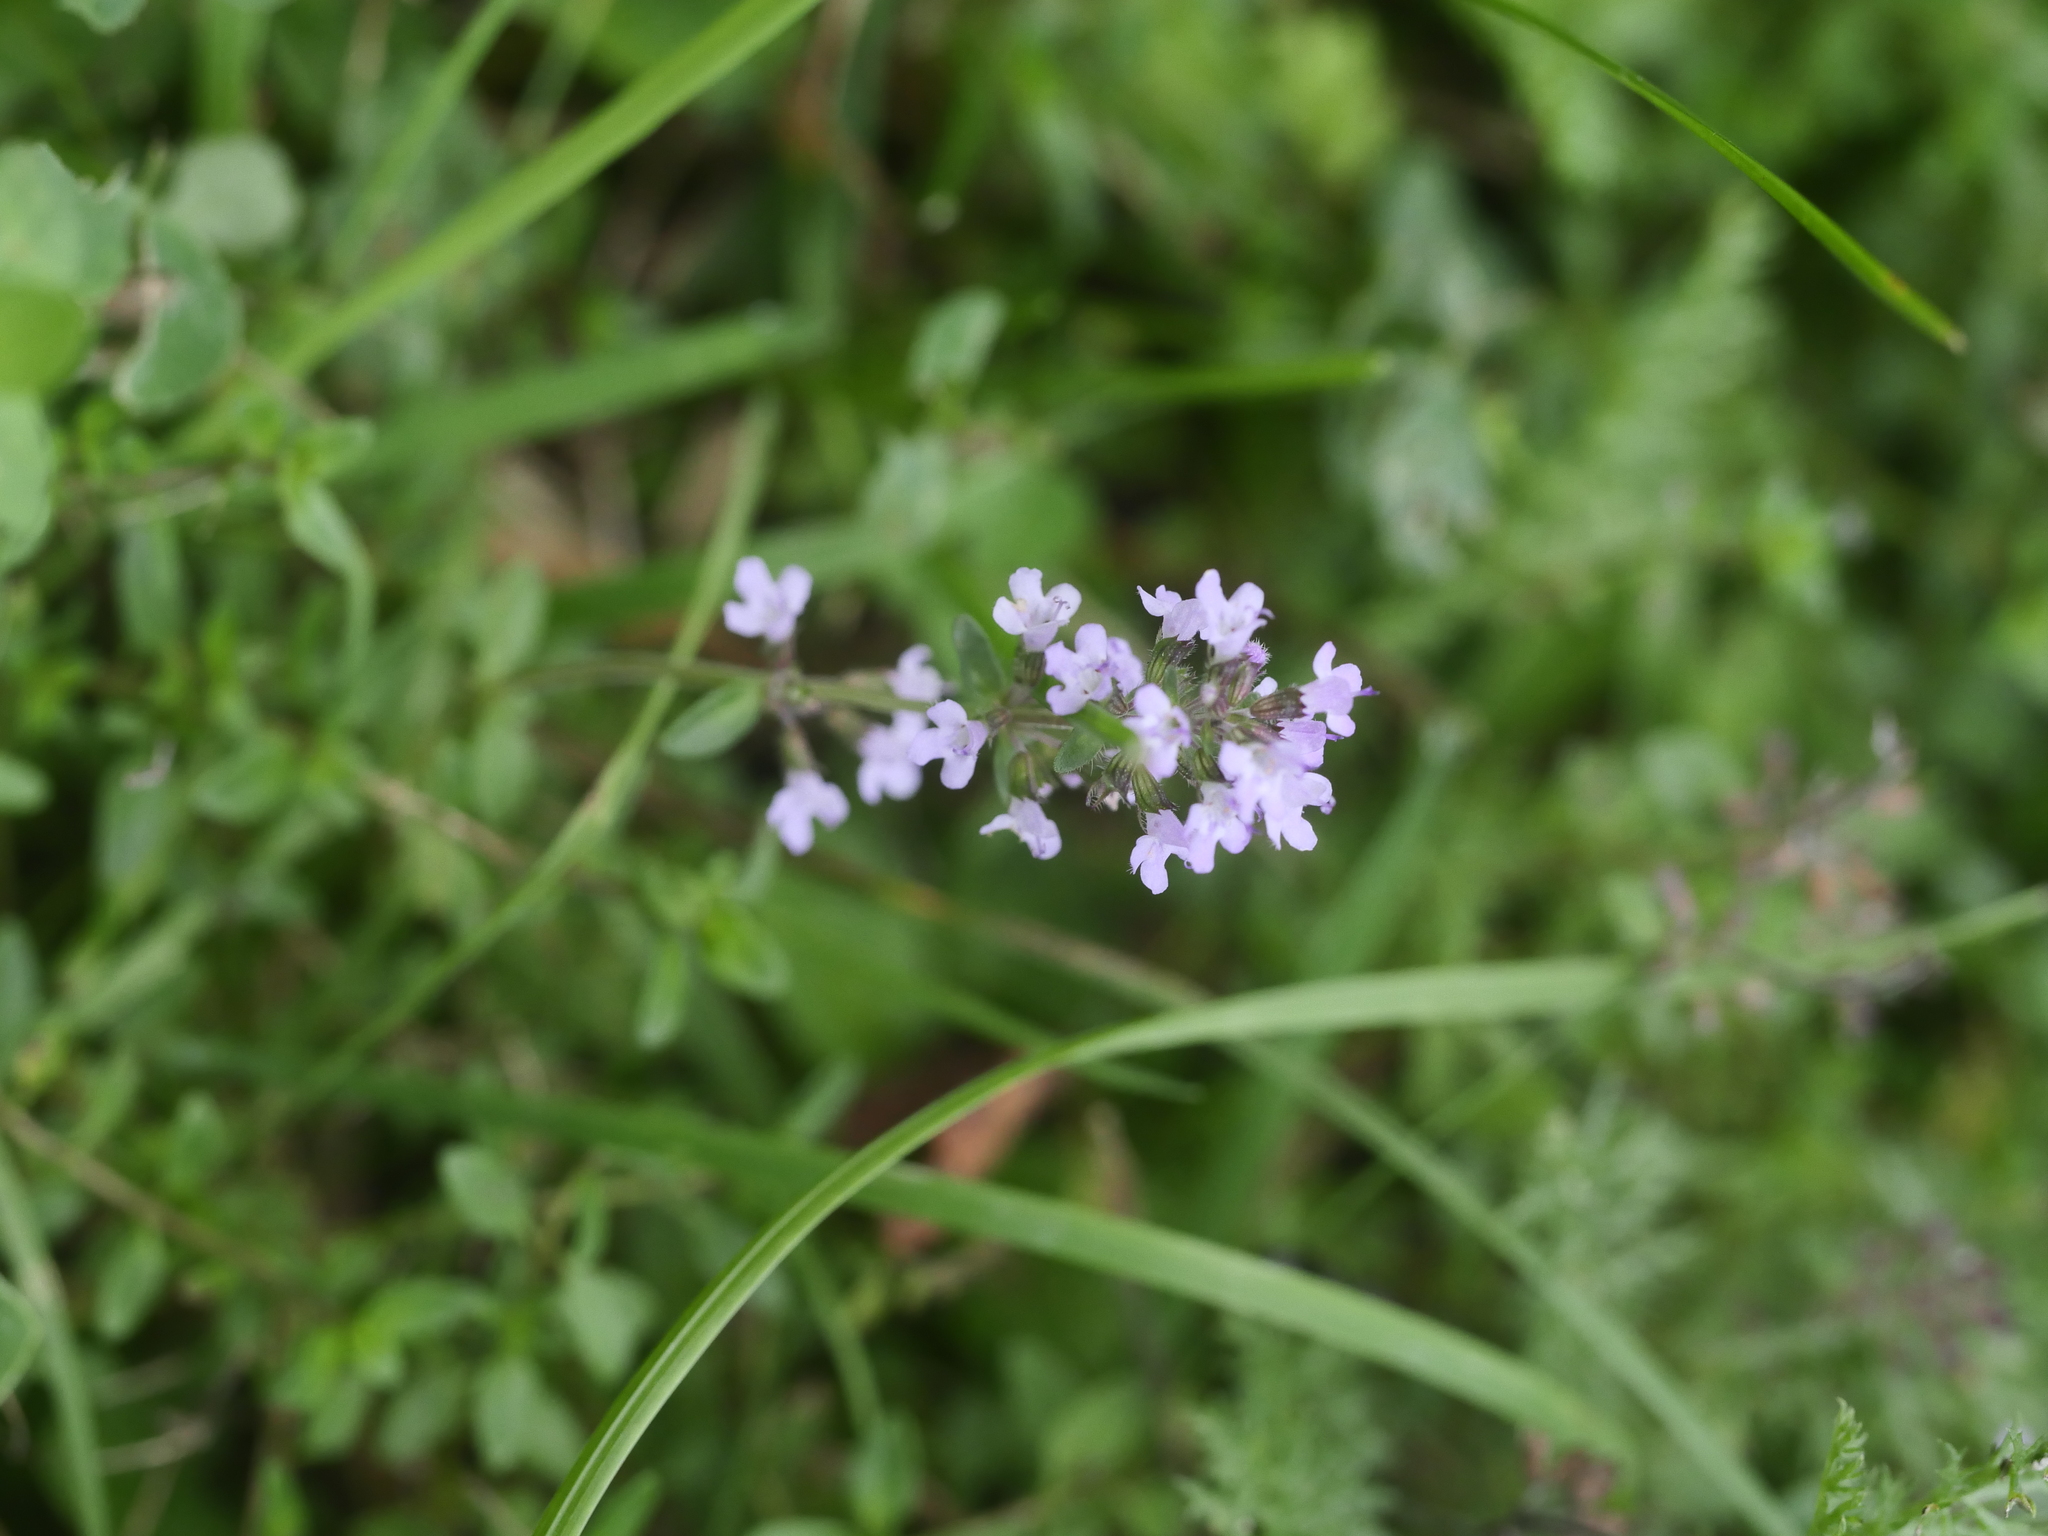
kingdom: Plantae
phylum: Tracheophyta
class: Magnoliopsida
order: Lamiales
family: Lamiaceae
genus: Thymus
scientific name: Thymus pulegioides
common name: Large thyme
